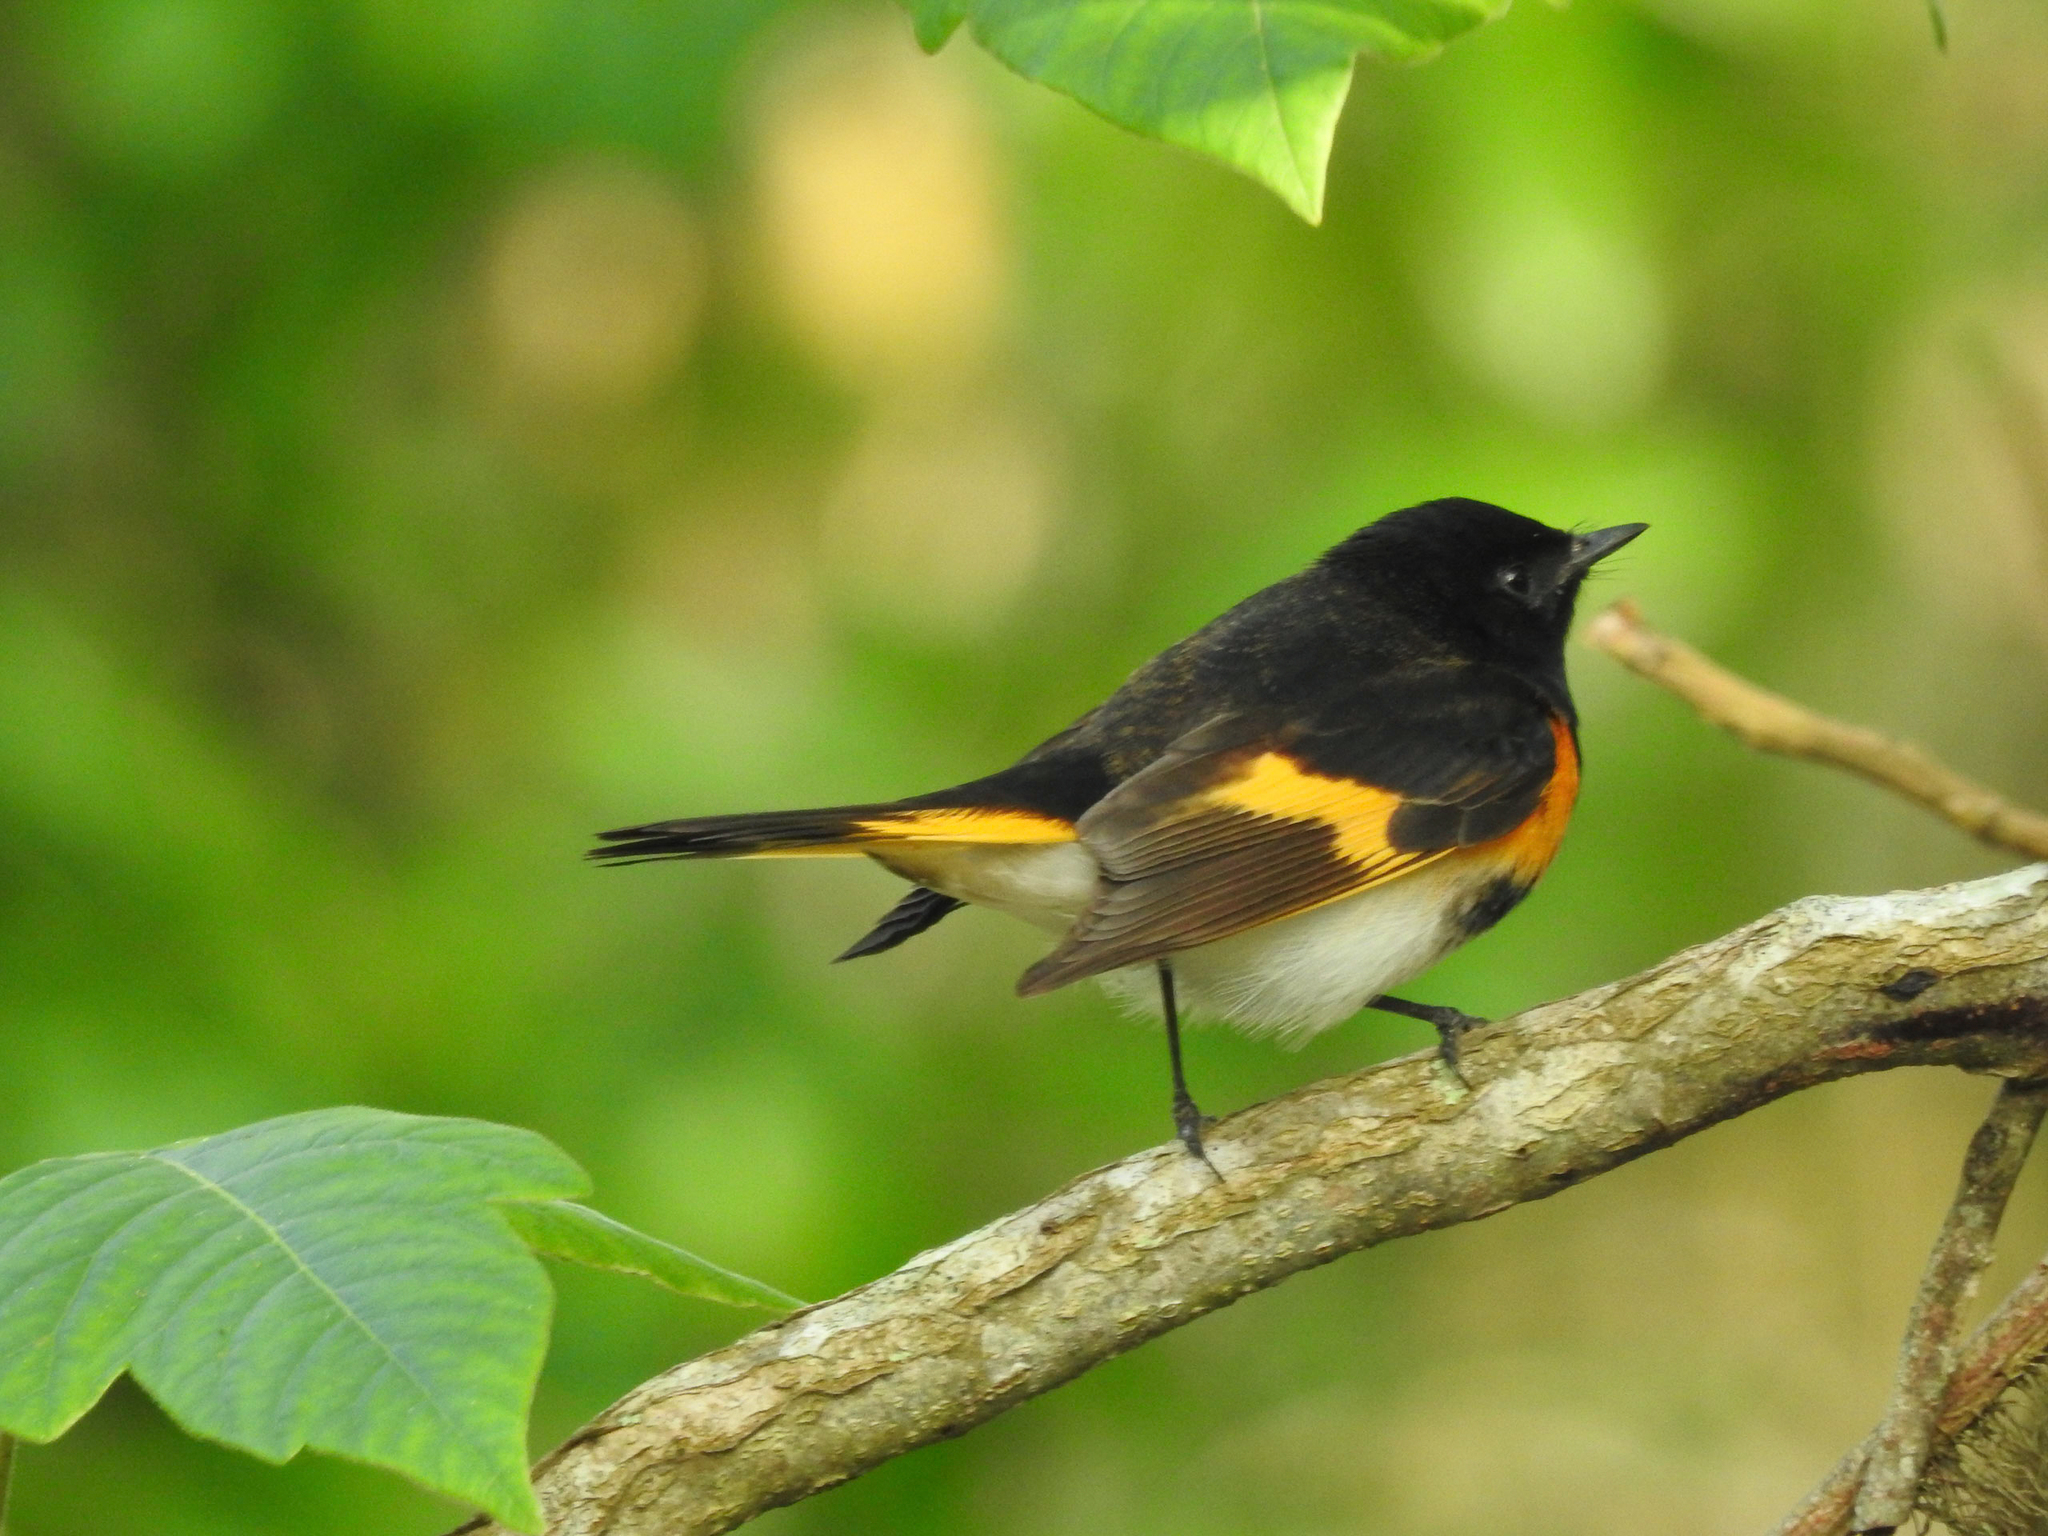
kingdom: Animalia
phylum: Chordata
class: Aves
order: Passeriformes
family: Parulidae
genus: Setophaga
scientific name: Setophaga ruticilla
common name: American redstart
